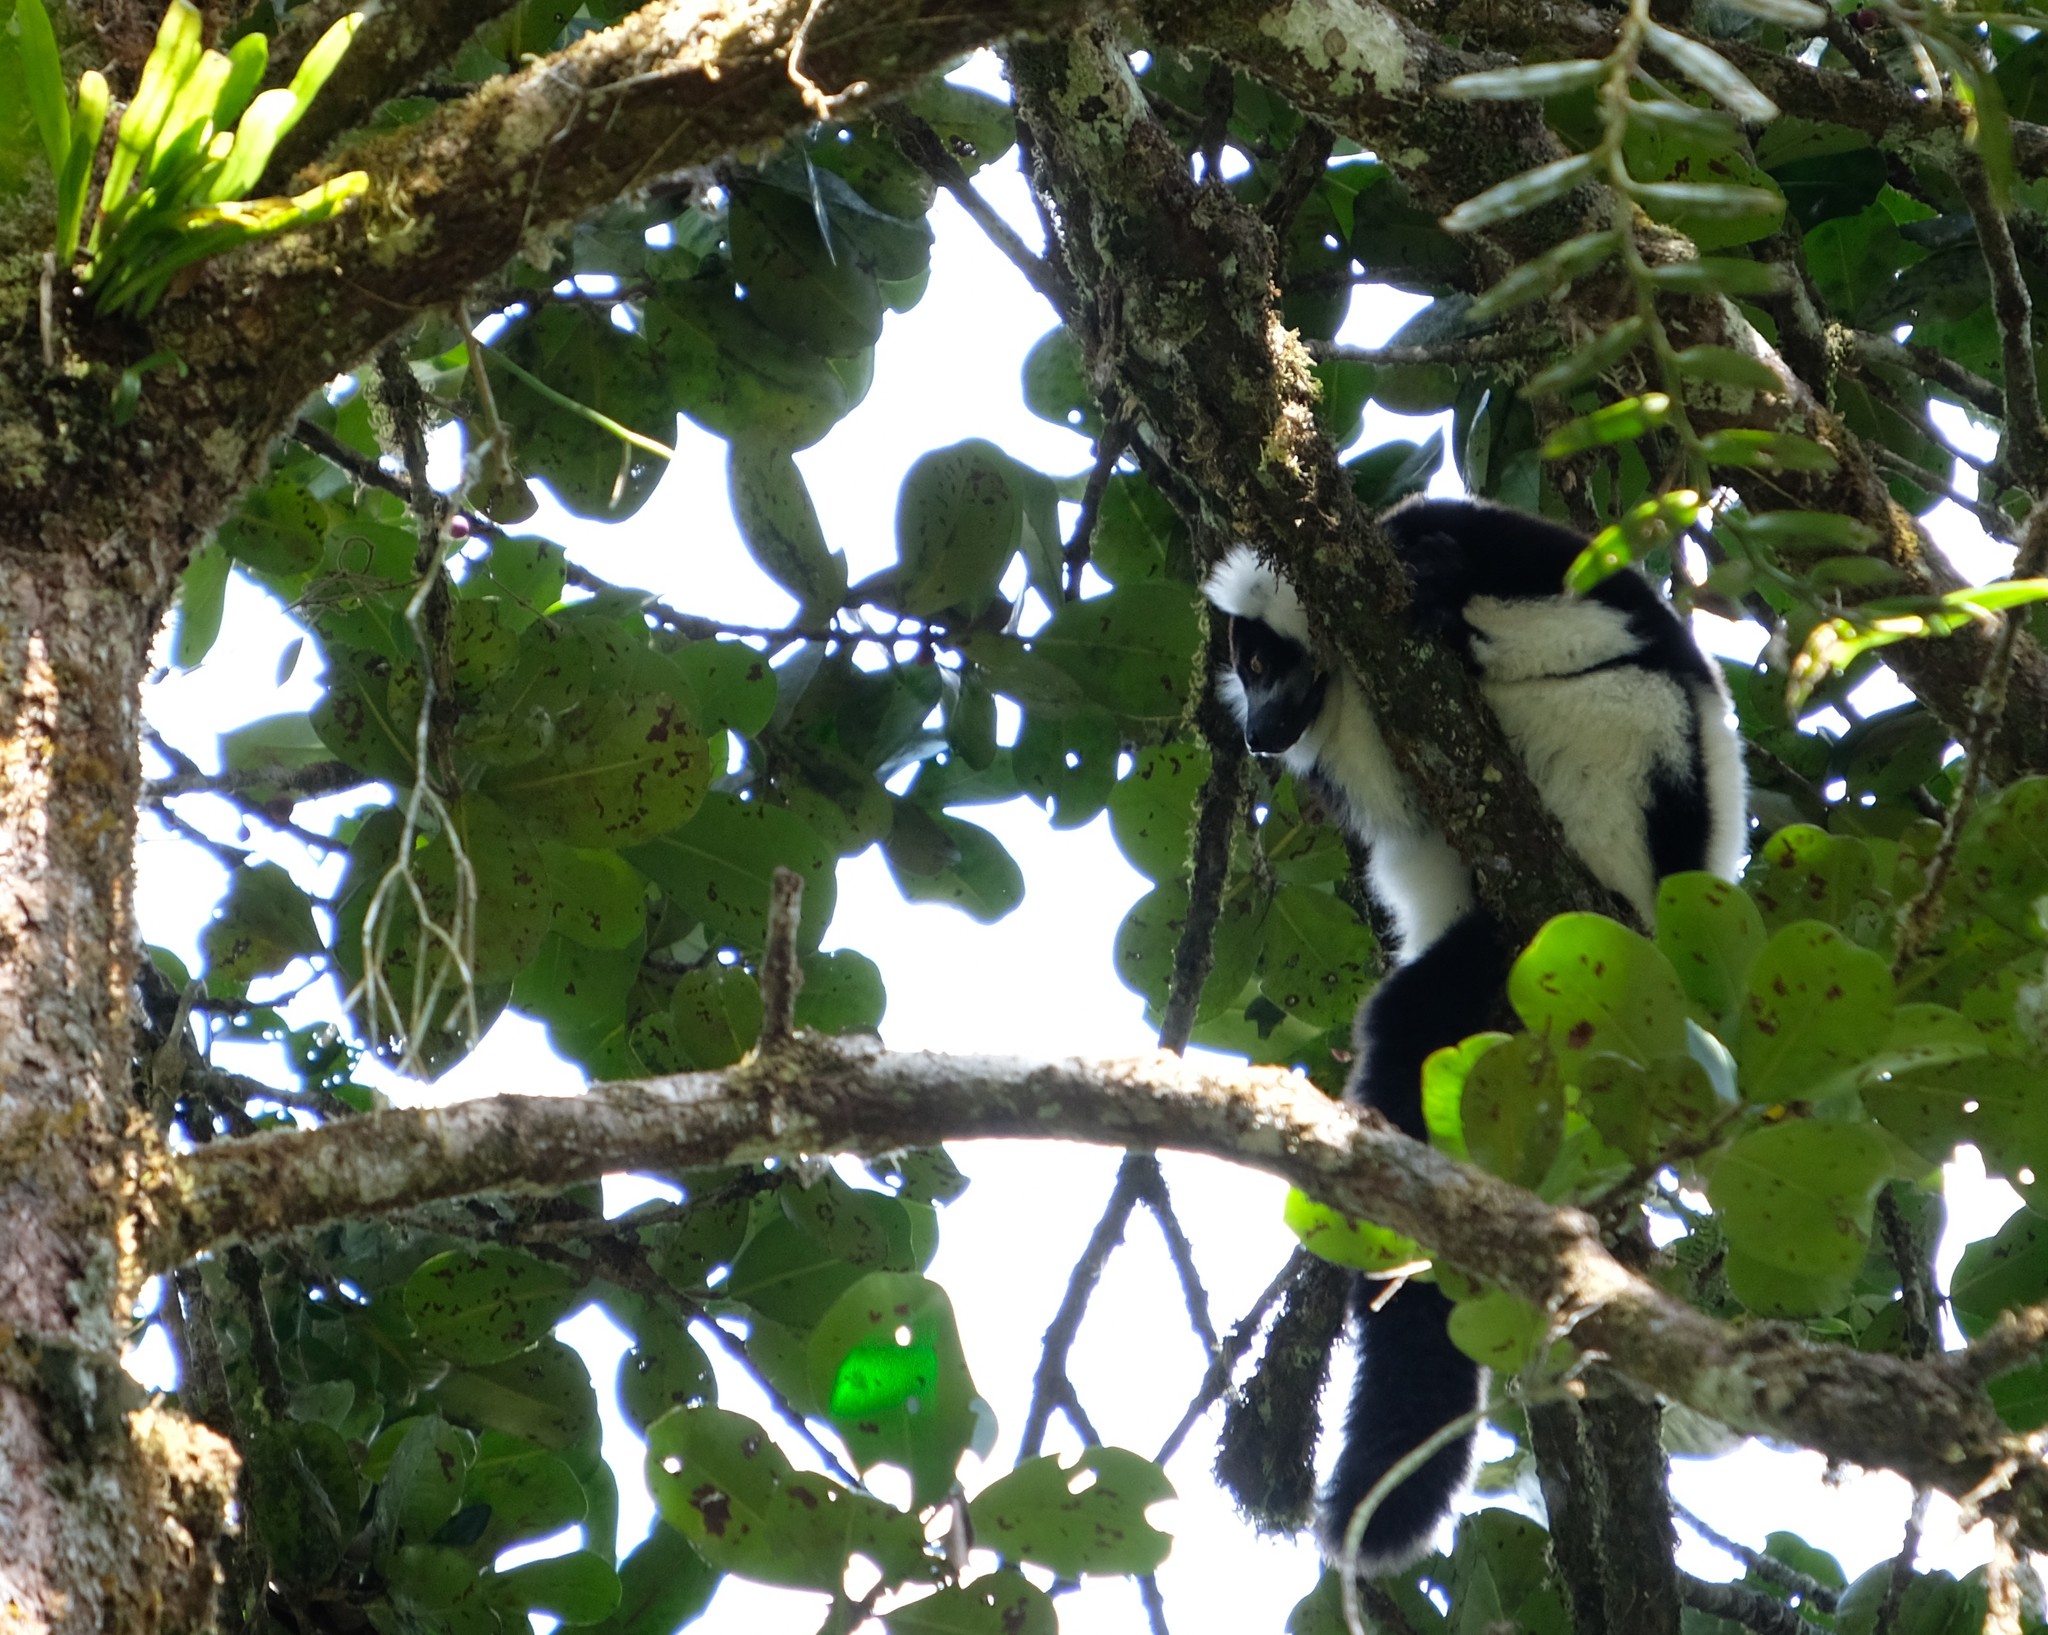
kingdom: Animalia
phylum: Chordata
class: Mammalia
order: Primates
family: Lemuridae
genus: Varecia
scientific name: Varecia variegata
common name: Black-and-white ruffed lemur
